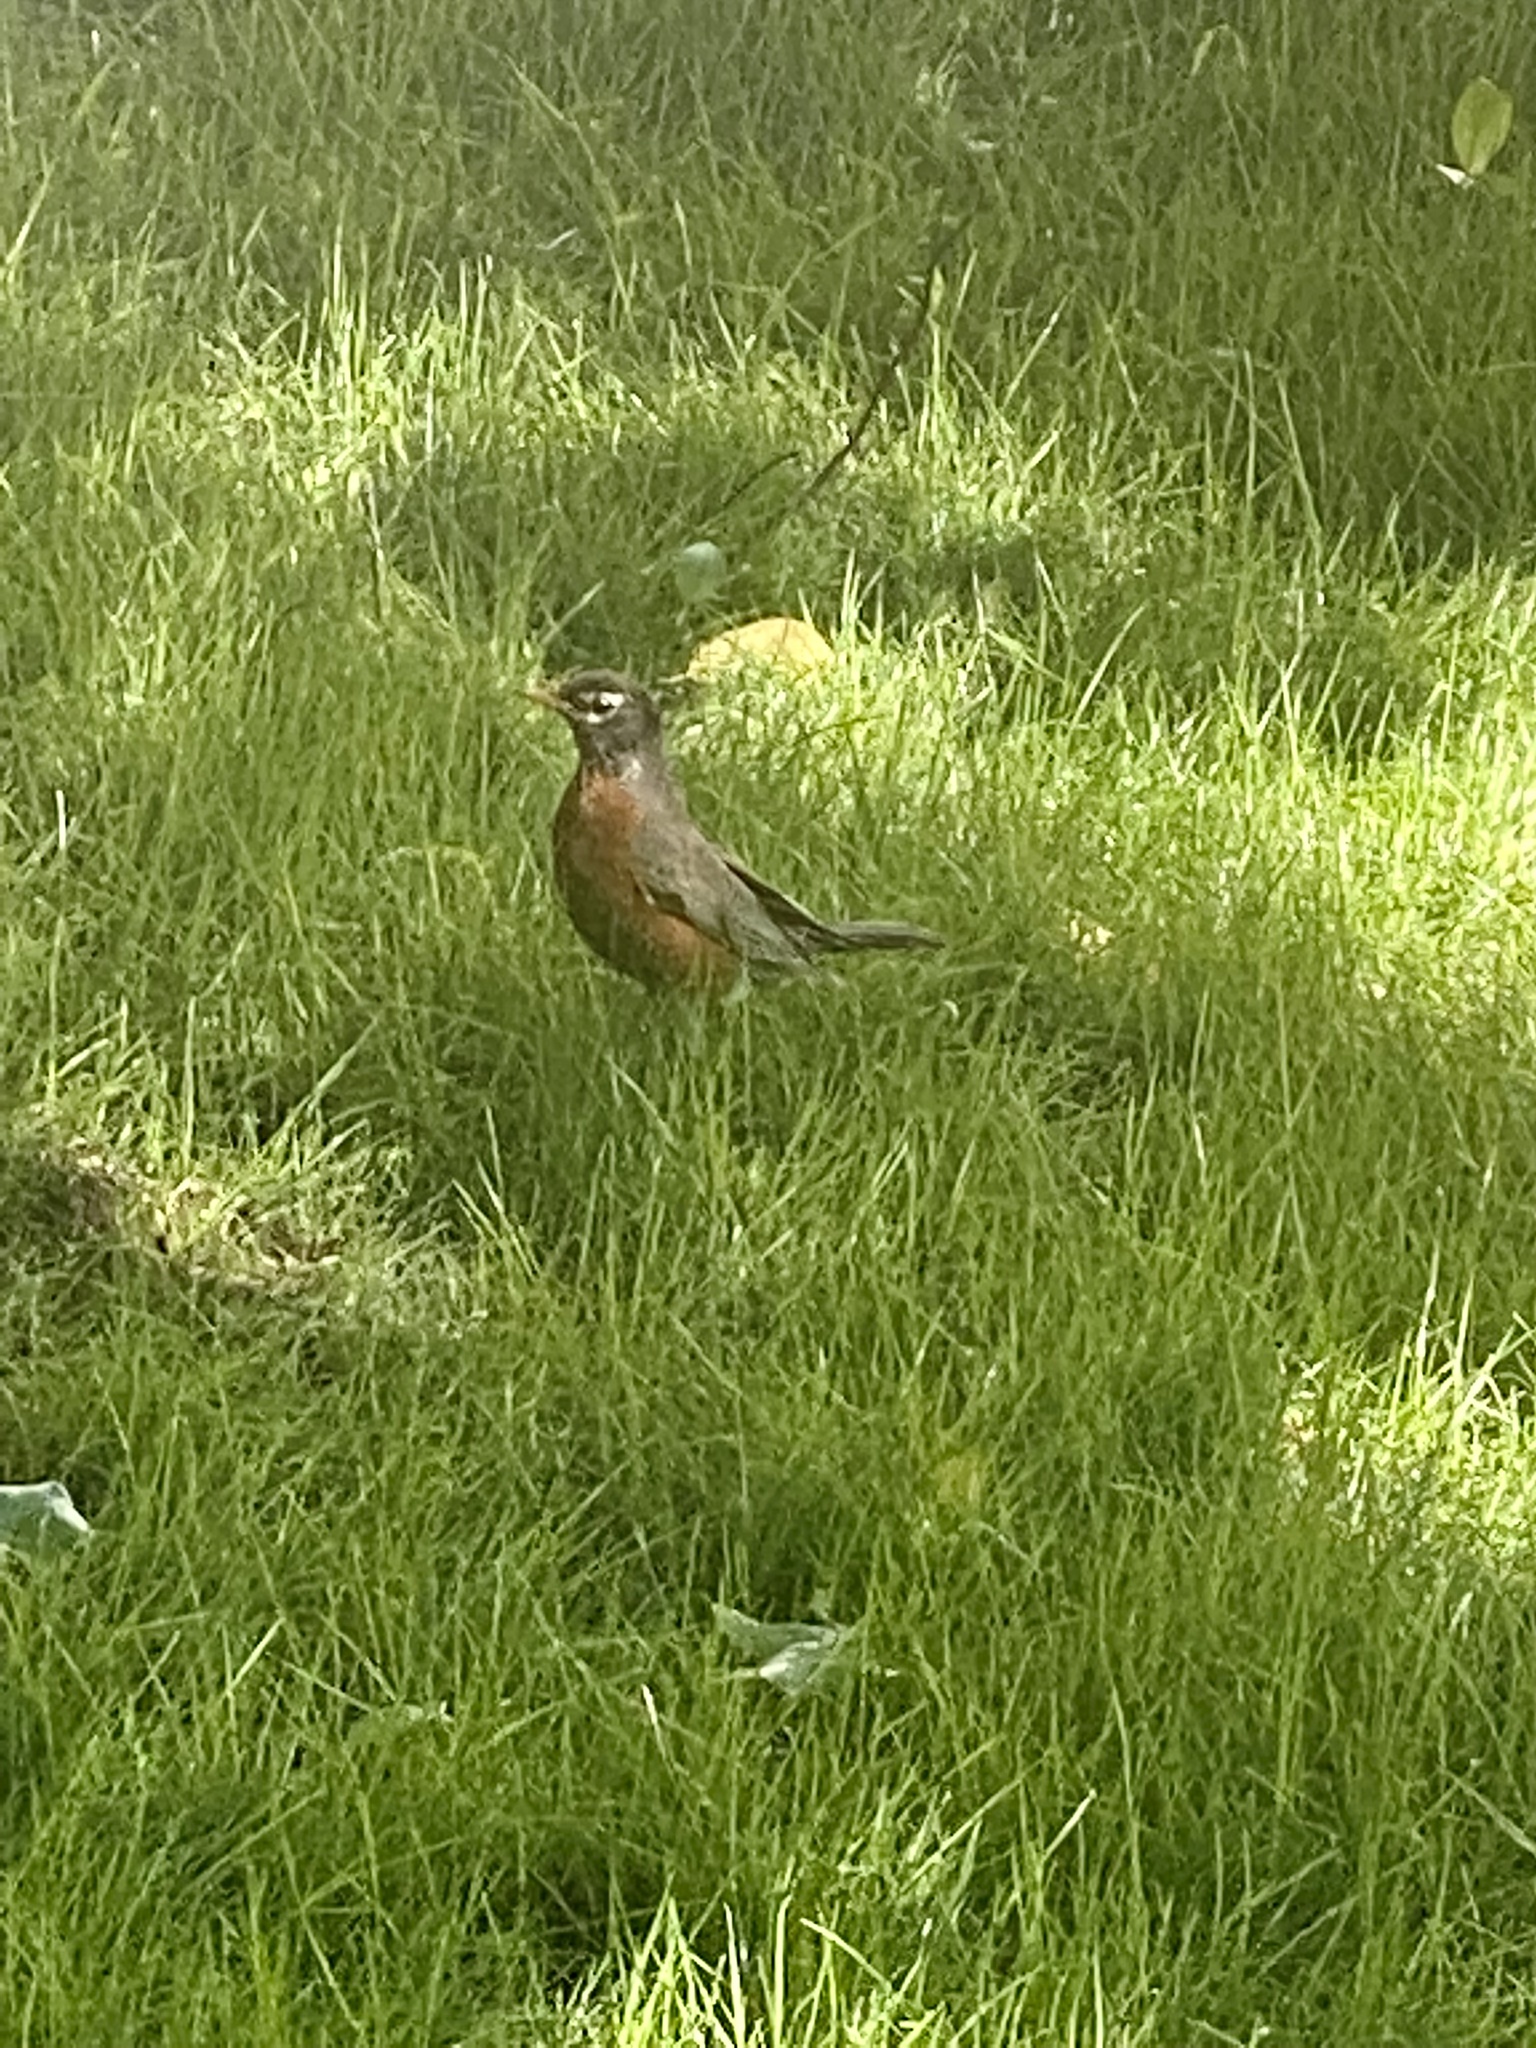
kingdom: Animalia
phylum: Chordata
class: Aves
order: Passeriformes
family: Turdidae
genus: Turdus
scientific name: Turdus migratorius
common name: American robin
